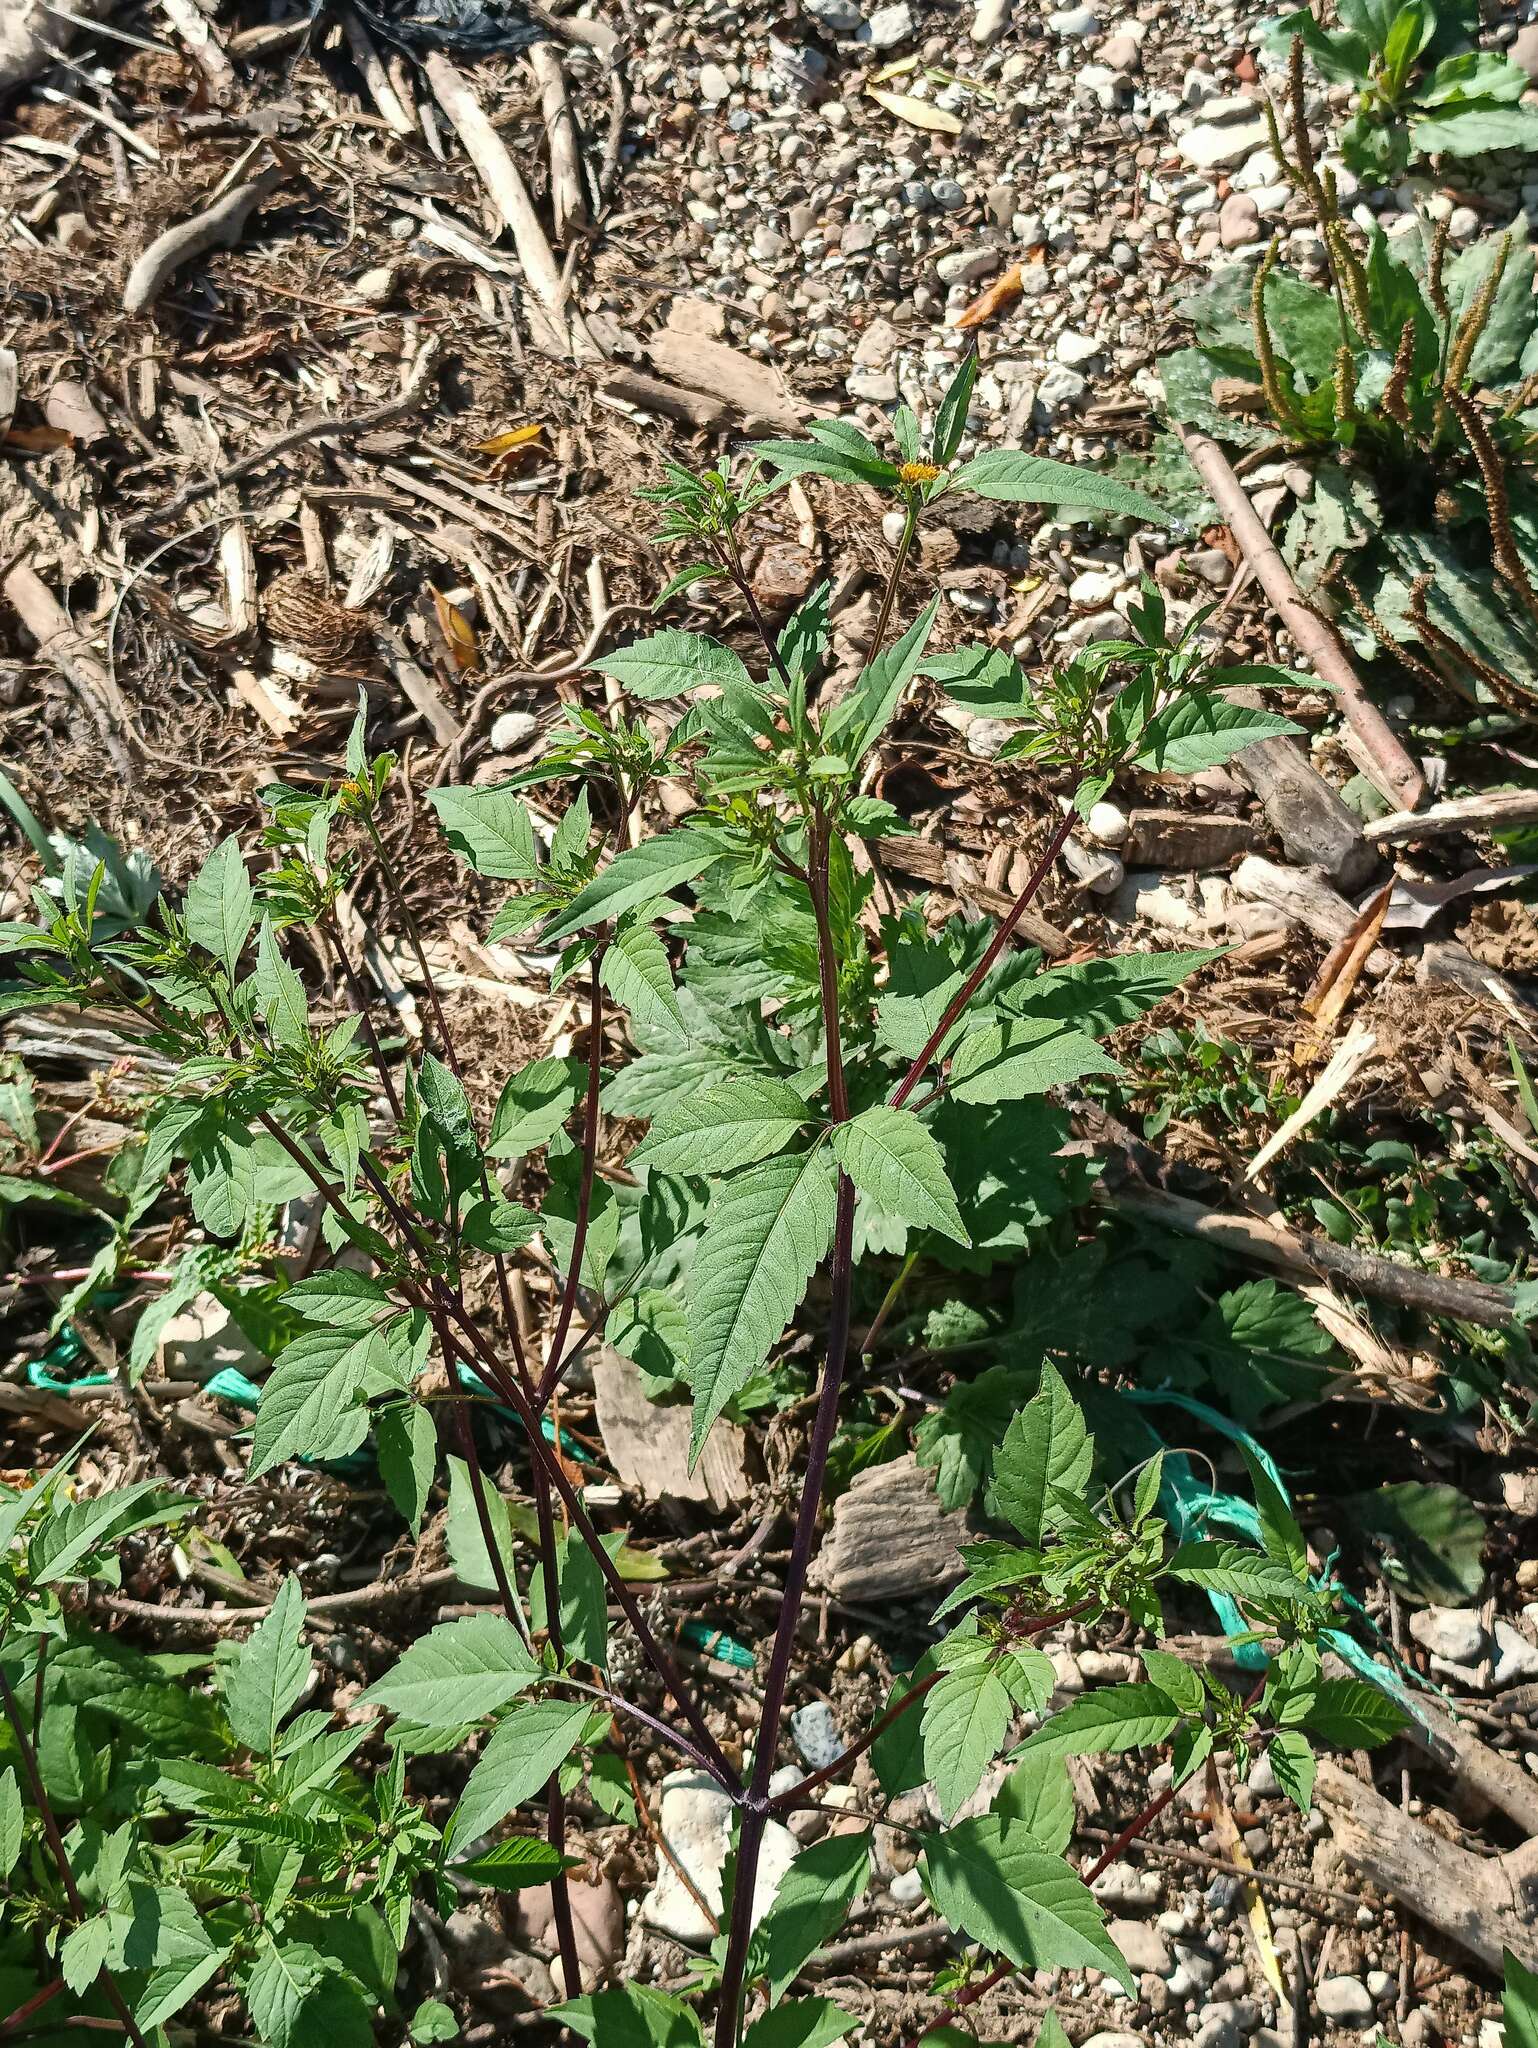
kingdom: Plantae
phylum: Tracheophyta
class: Magnoliopsida
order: Asterales
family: Asteraceae
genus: Bidens
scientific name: Bidens frondosa
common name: Beggarticks
